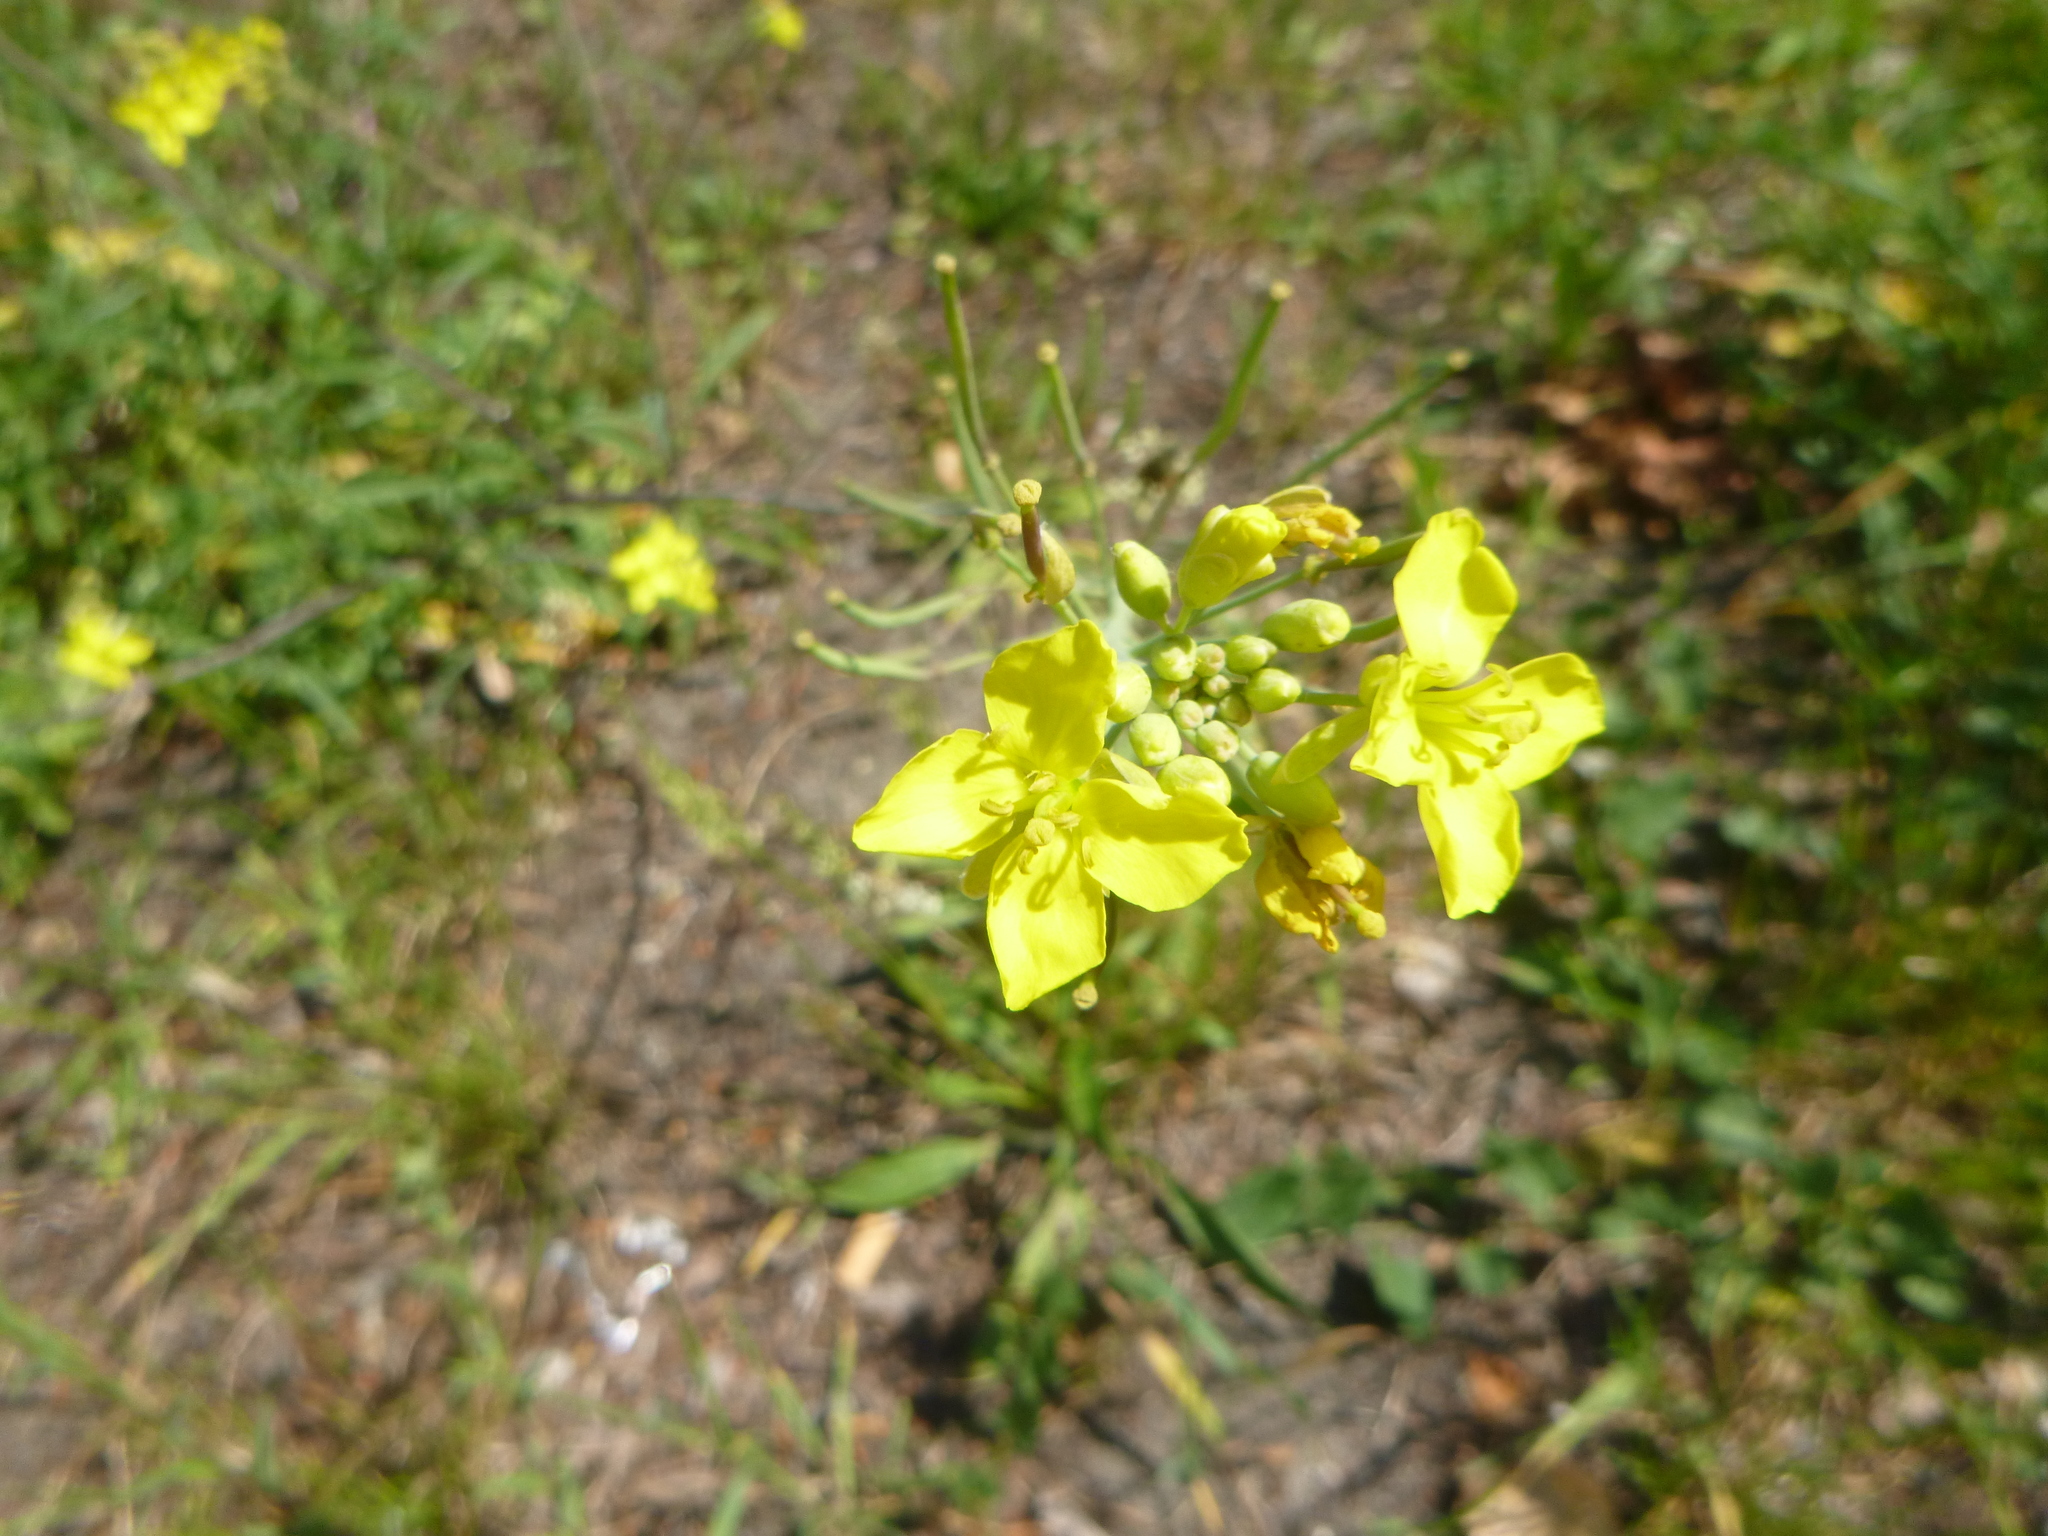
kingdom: Plantae
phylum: Tracheophyta
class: Magnoliopsida
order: Brassicales
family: Brassicaceae
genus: Diplotaxis
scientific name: Diplotaxis tenuifolia
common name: Perennial wall-rocket
